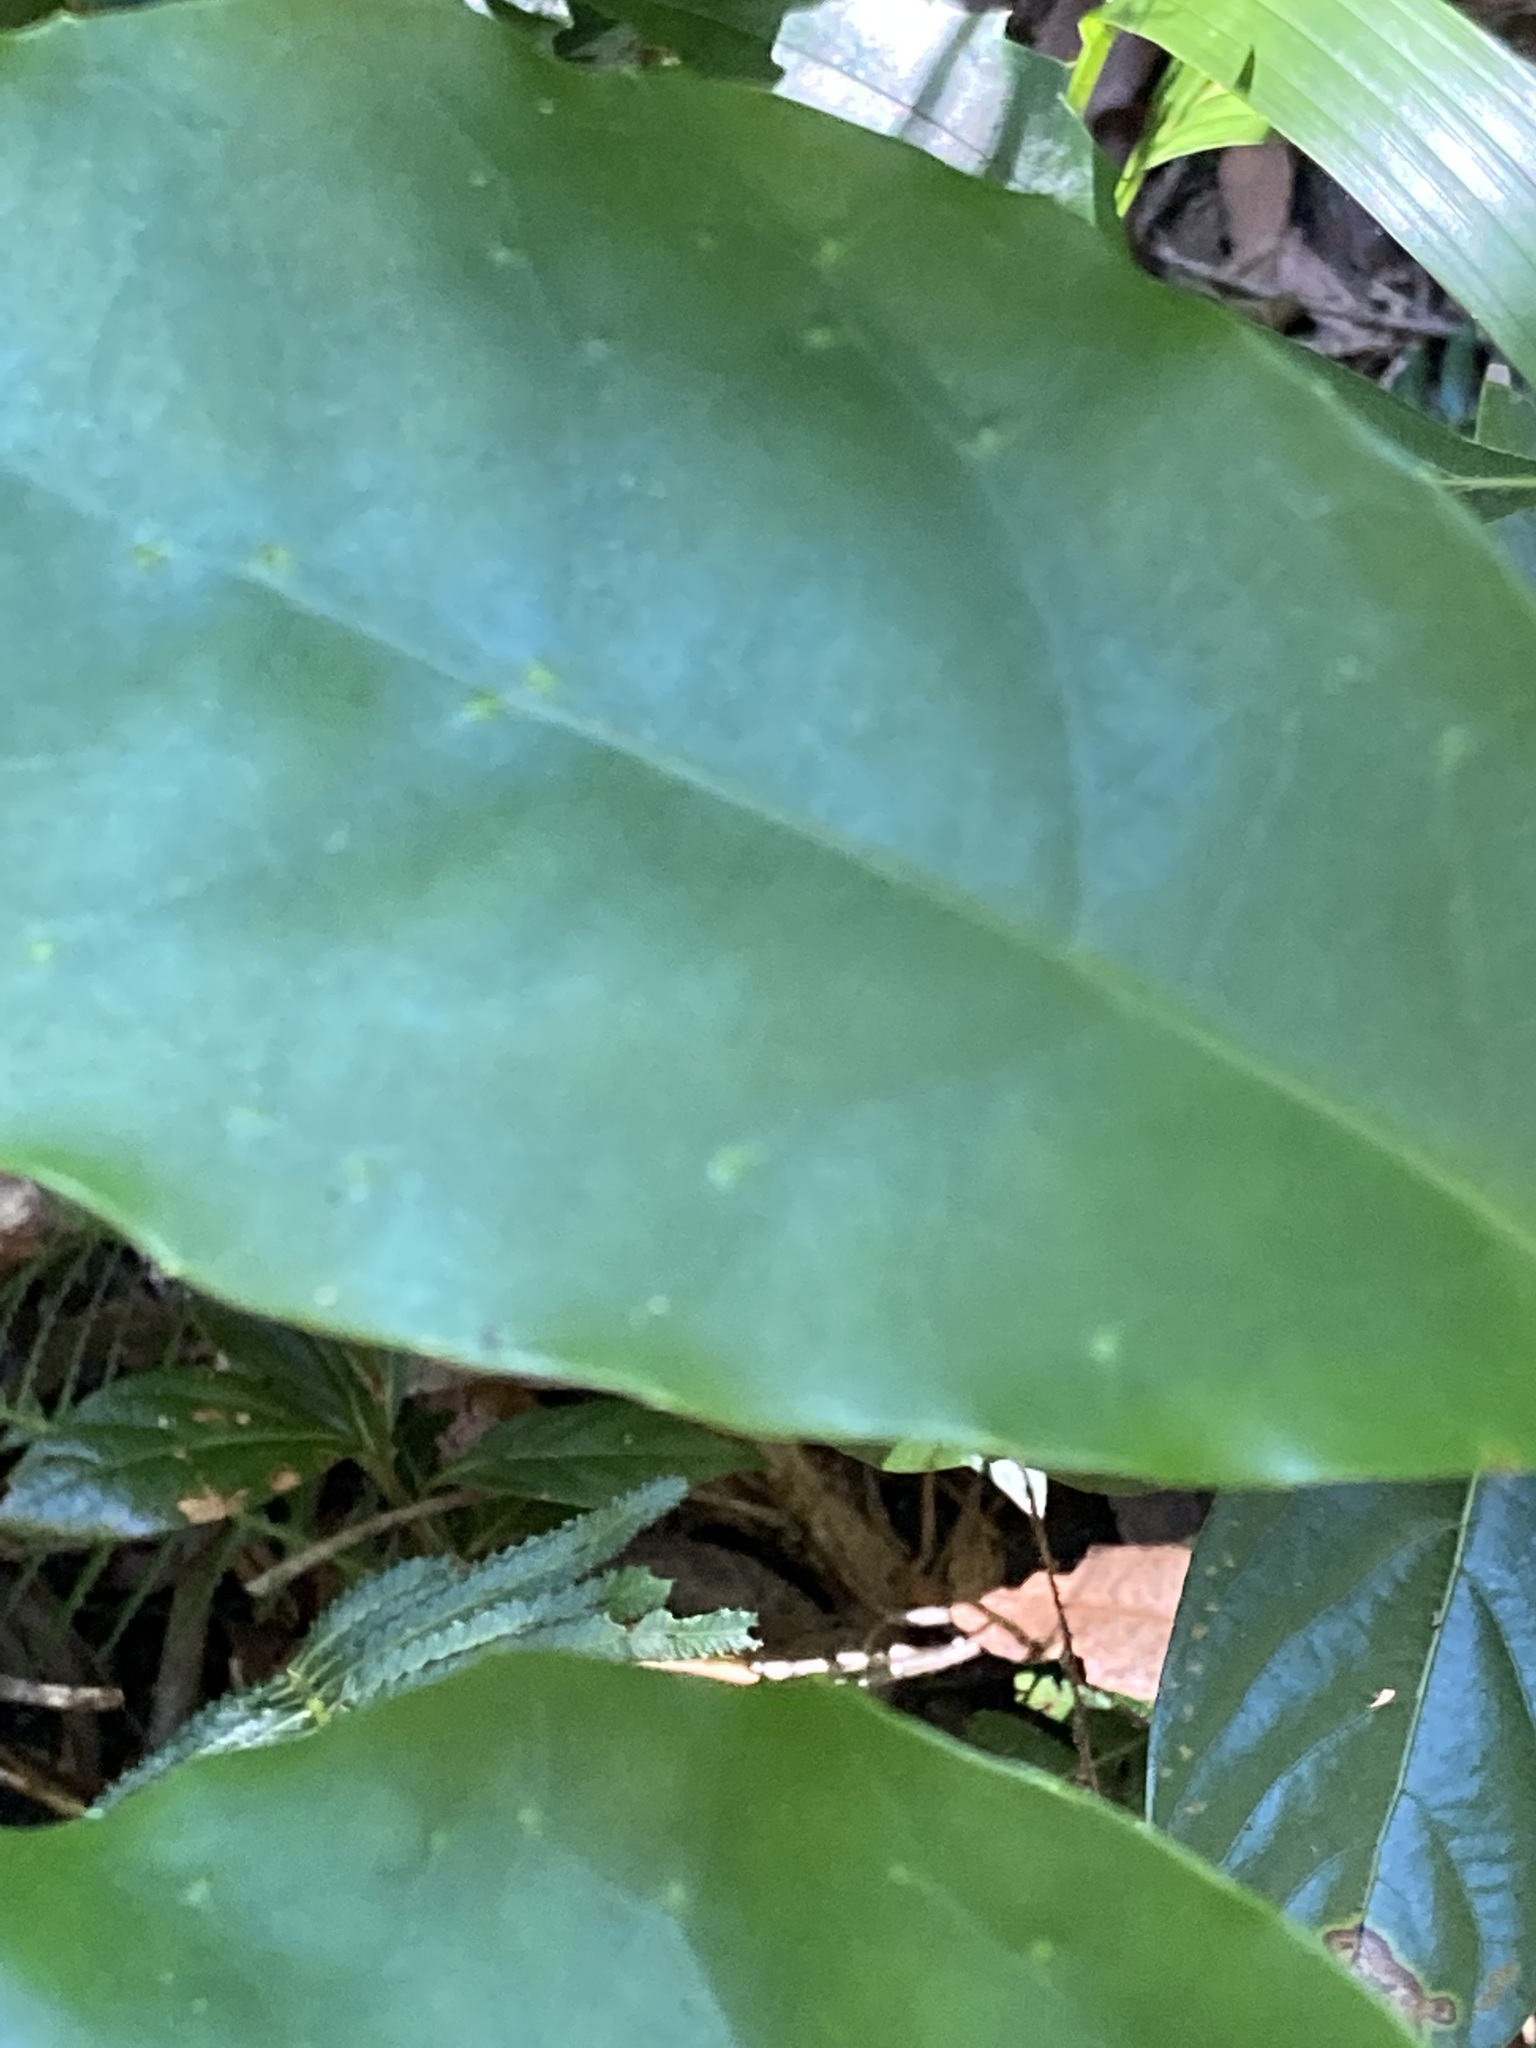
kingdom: Plantae
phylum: Tracheophyta
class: Magnoliopsida
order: Apiales
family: Pennantiaceae
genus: Pennantia
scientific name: Pennantia cunninghamii
